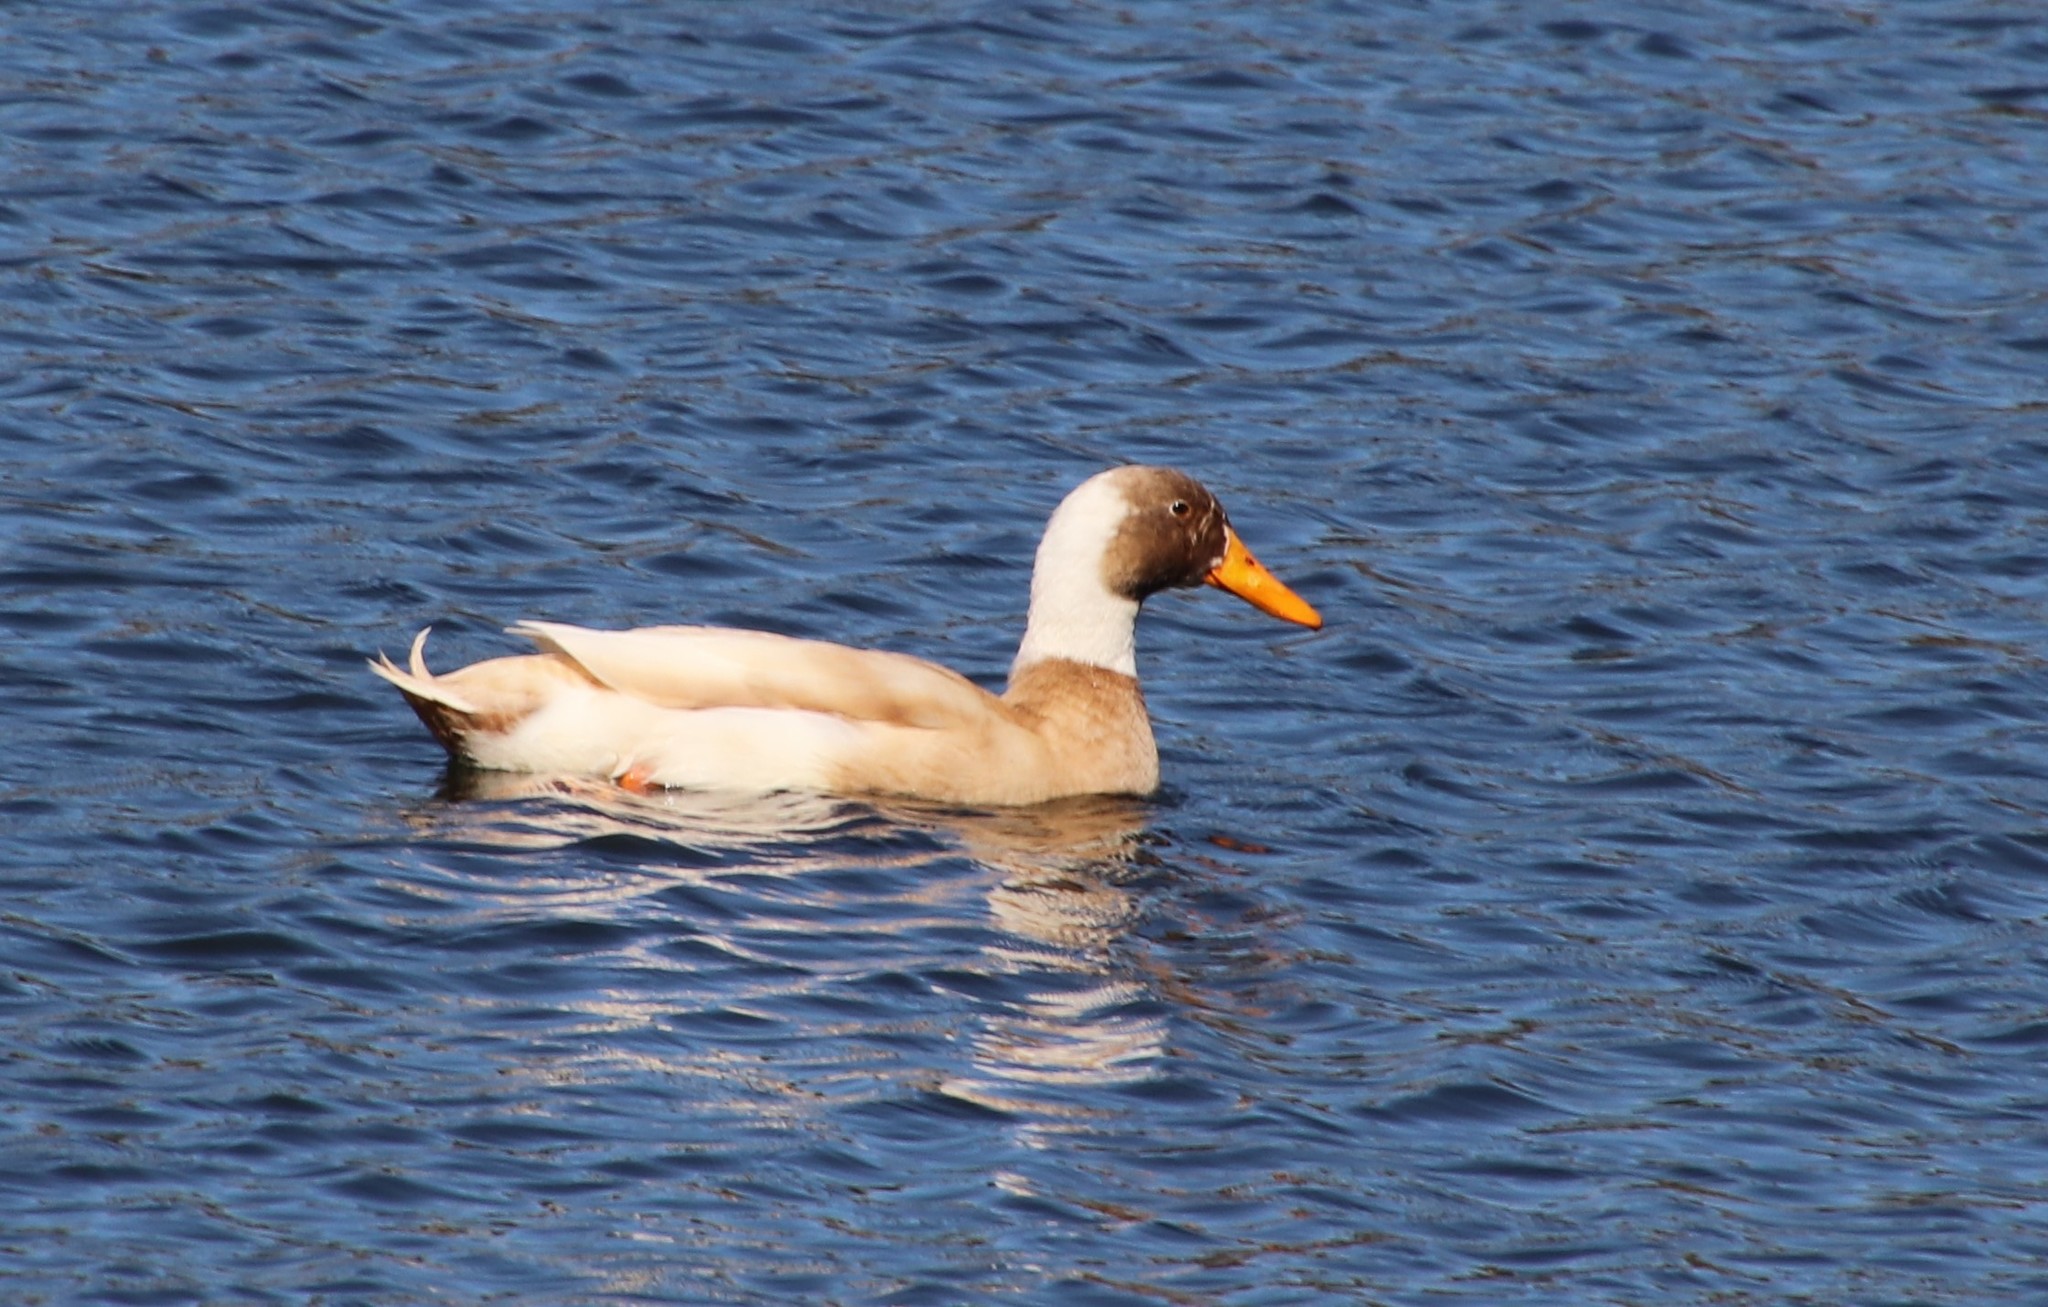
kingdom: Animalia
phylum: Chordata
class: Aves
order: Anseriformes
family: Anatidae
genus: Anas
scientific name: Anas platyrhynchos
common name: Mallard
